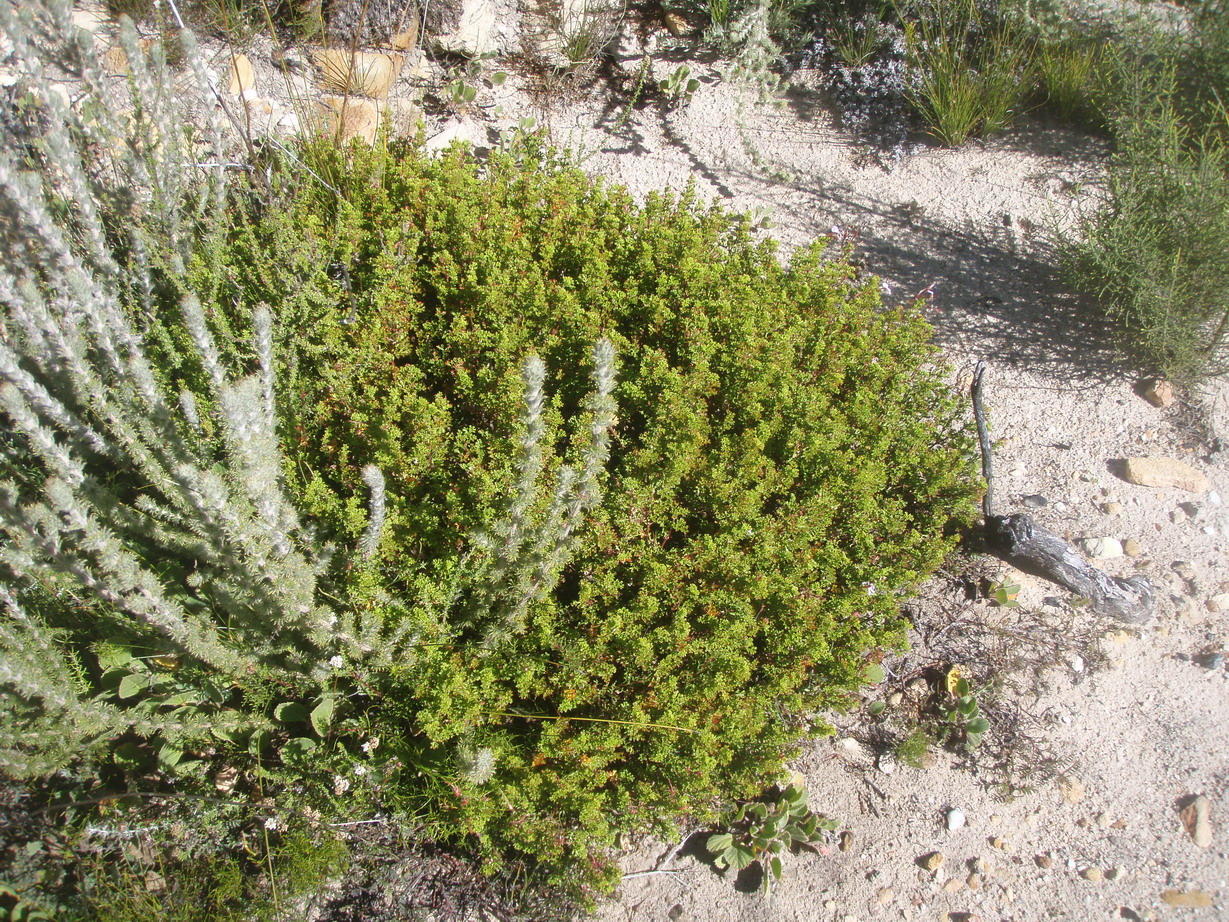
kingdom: Plantae
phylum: Tracheophyta
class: Magnoliopsida
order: Geraniales
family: Geraniaceae
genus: Pelargonium
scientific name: Pelargonium fruticosum
